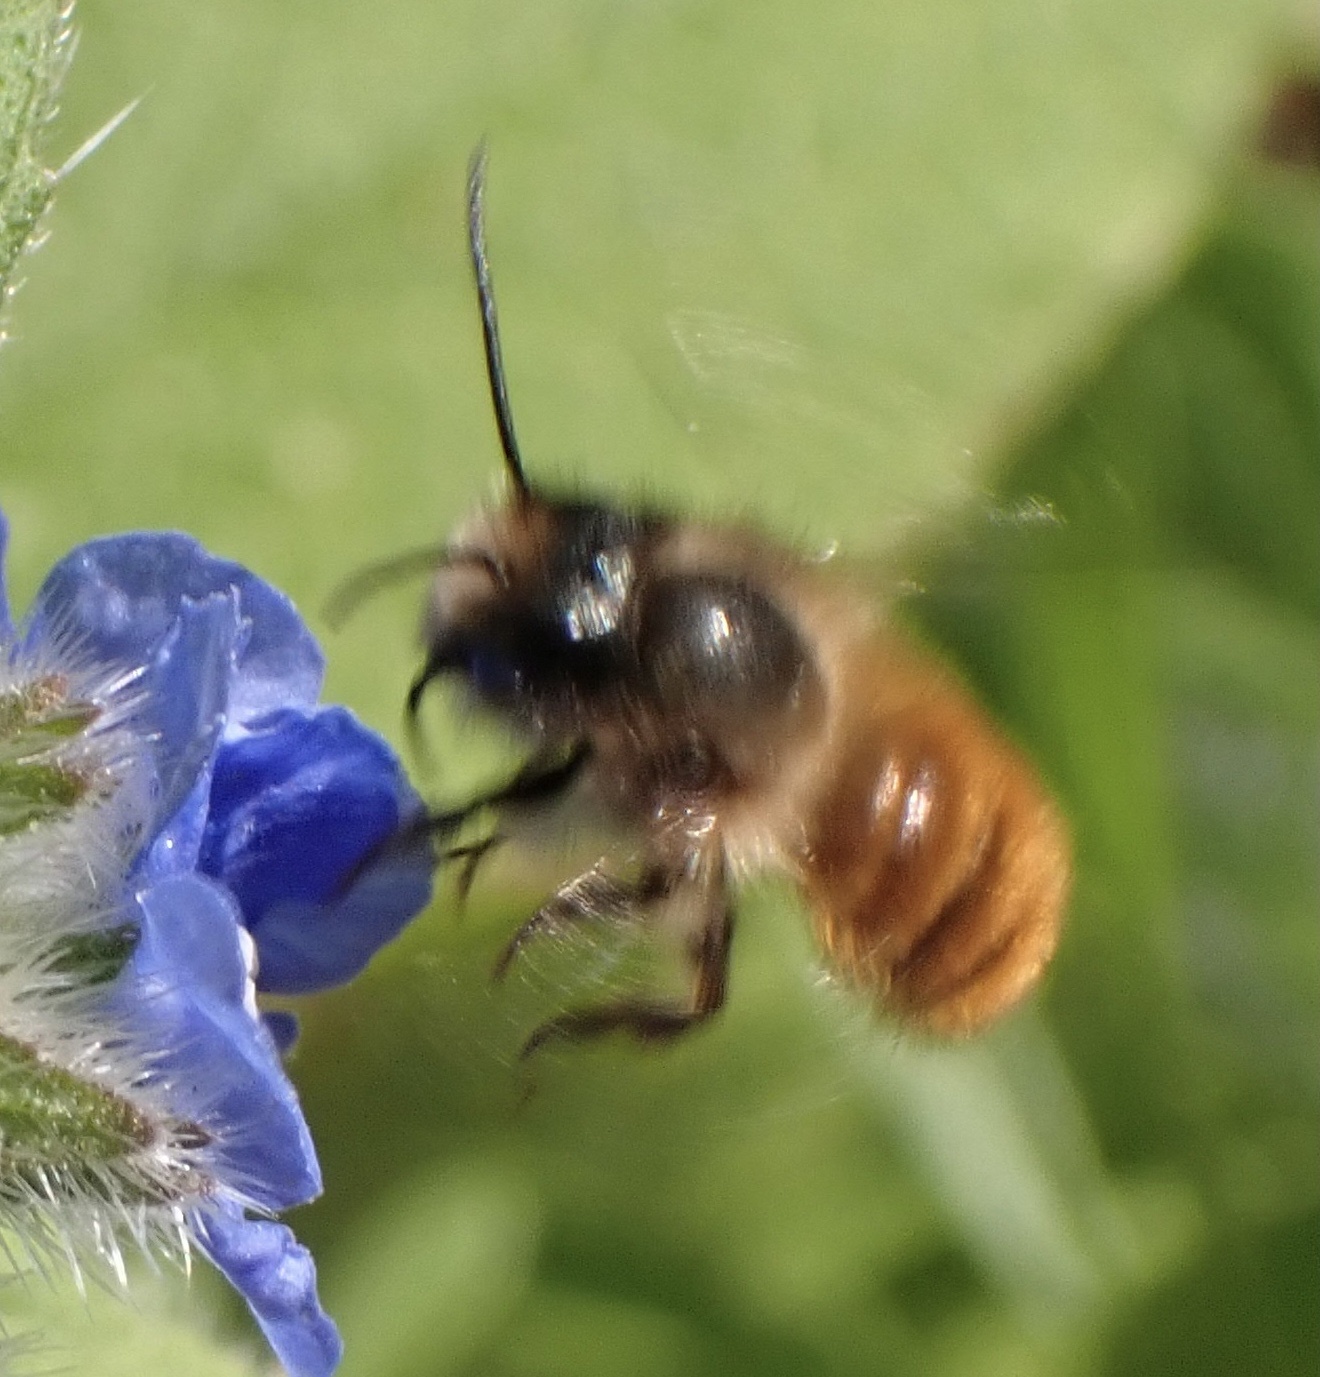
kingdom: Animalia
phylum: Arthropoda
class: Insecta
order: Hymenoptera
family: Megachilidae
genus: Osmia
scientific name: Osmia bicornis
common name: Red mason bee
